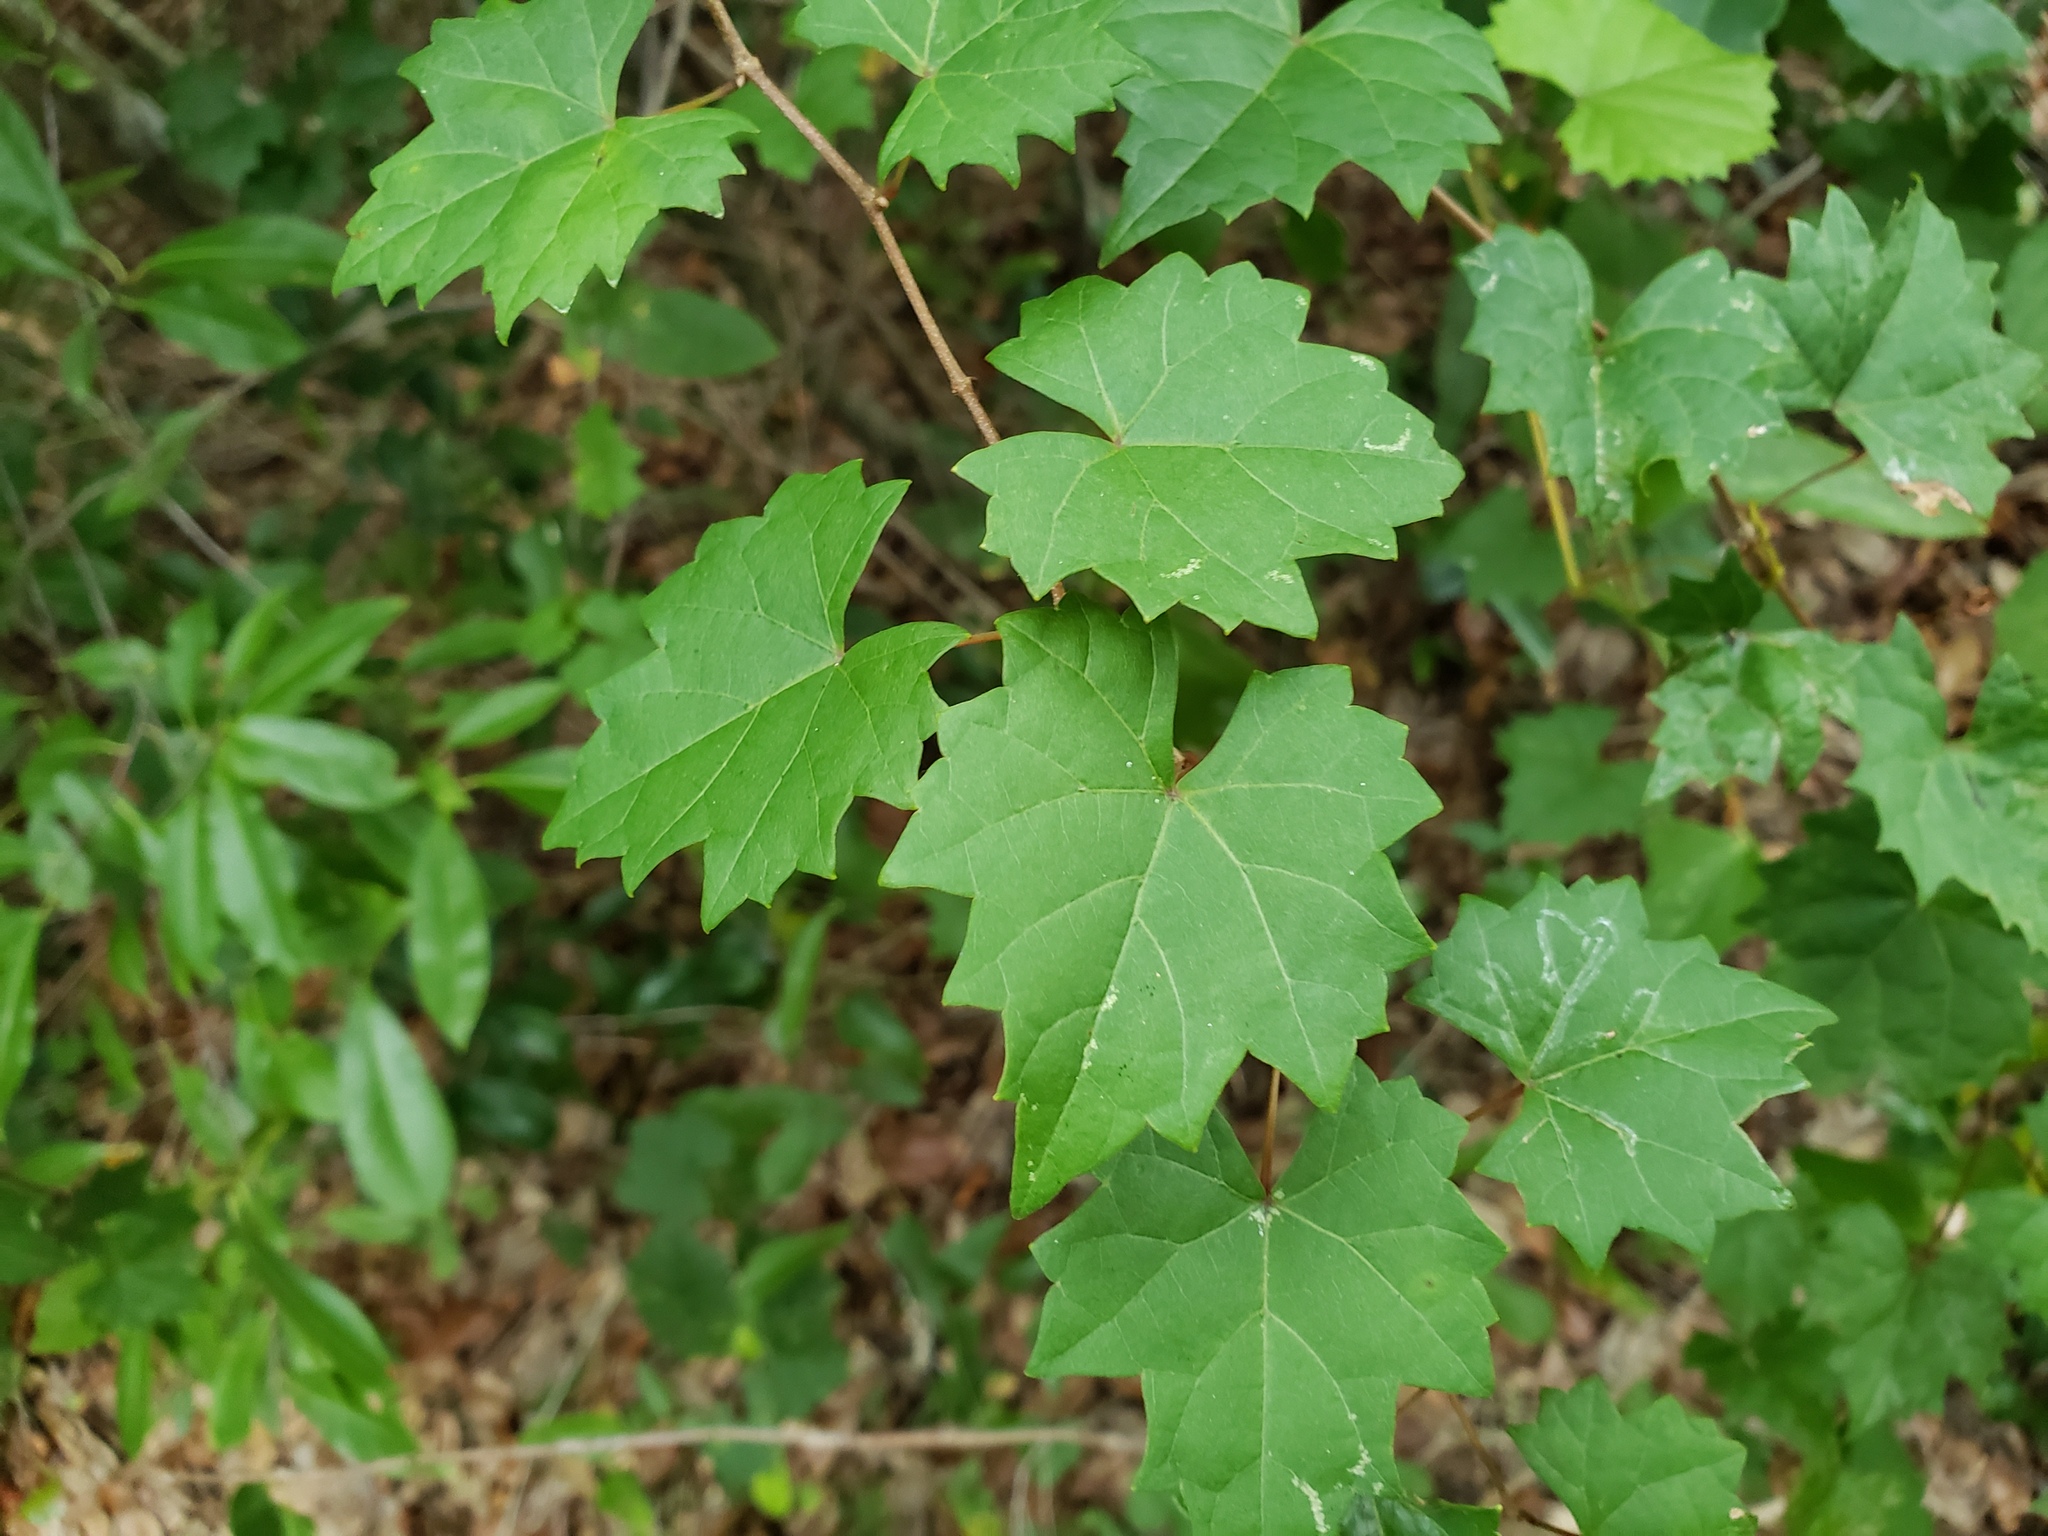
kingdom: Plantae
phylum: Tracheophyta
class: Magnoliopsida
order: Vitales
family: Vitaceae
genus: Vitis
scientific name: Vitis rotundifolia
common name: Muscadine grape
